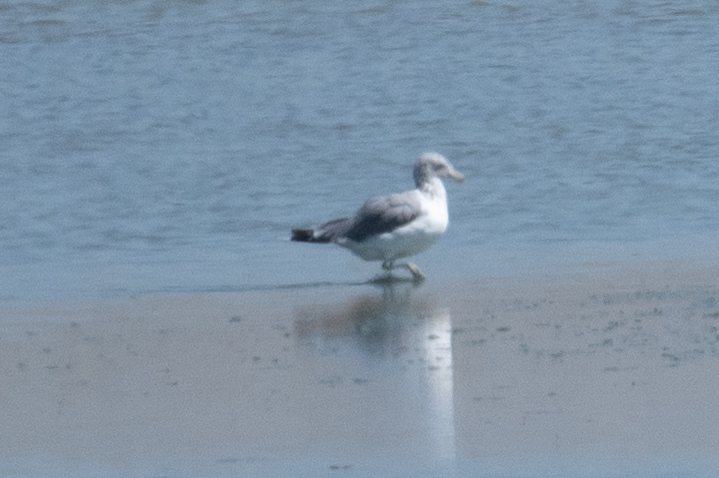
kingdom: Animalia
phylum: Chordata
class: Aves
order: Charadriiformes
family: Laridae
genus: Larus
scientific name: Larus californicus
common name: California gull
